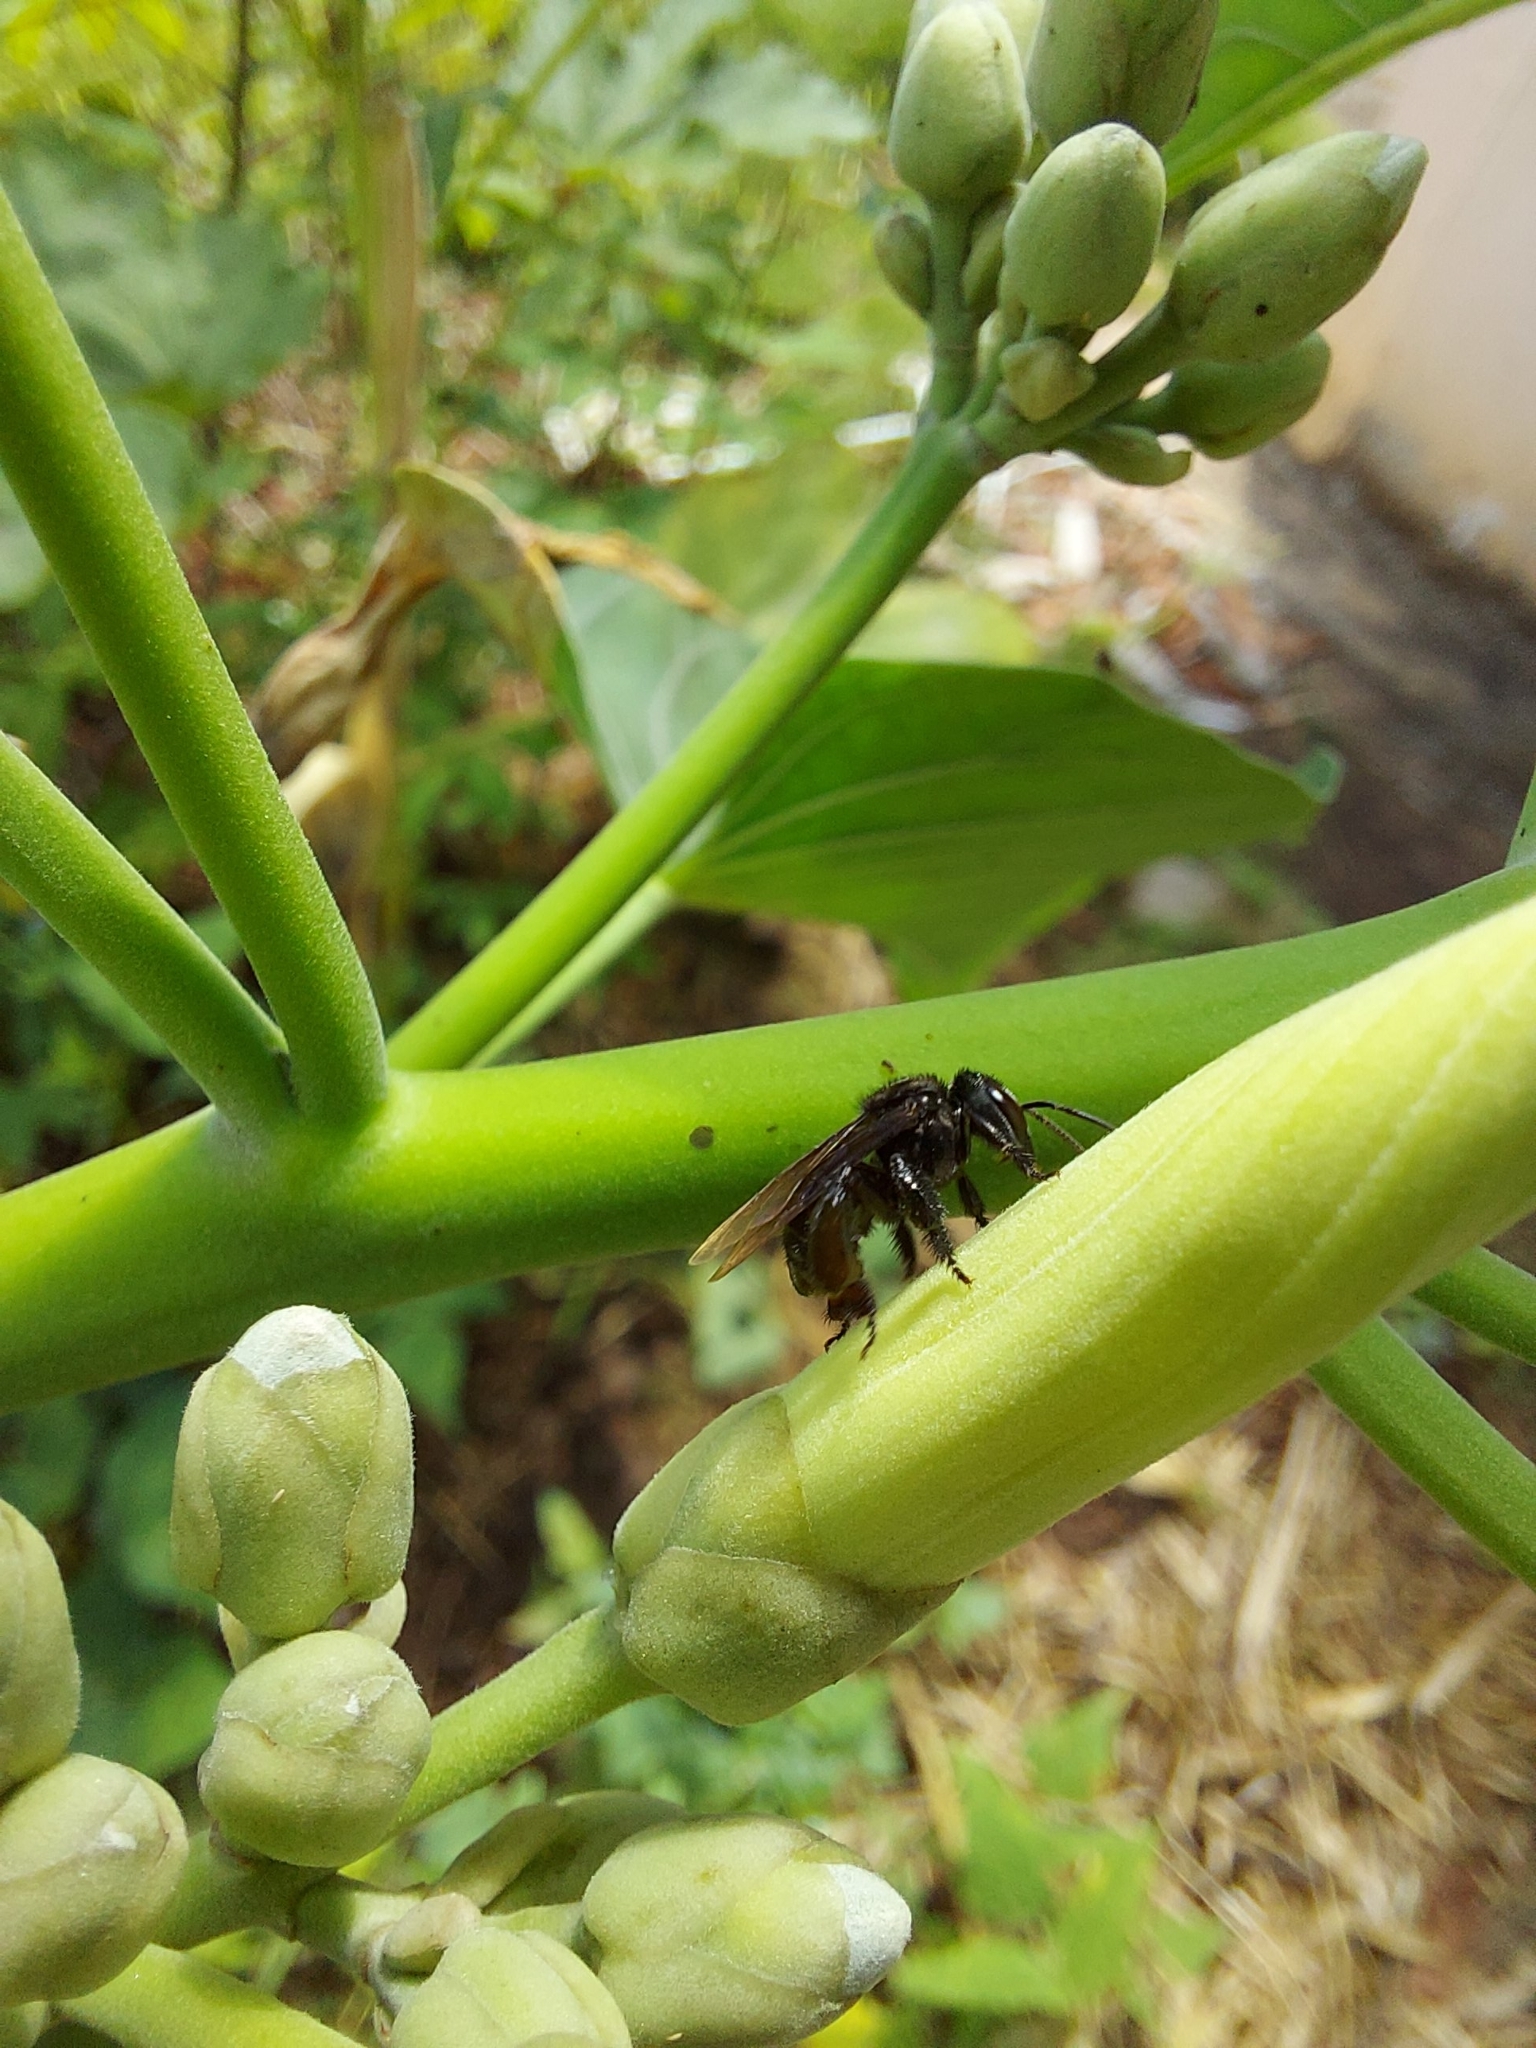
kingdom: Animalia
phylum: Arthropoda
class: Insecta
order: Hymenoptera
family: Apidae
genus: Trigona
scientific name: Trigona spinipes
